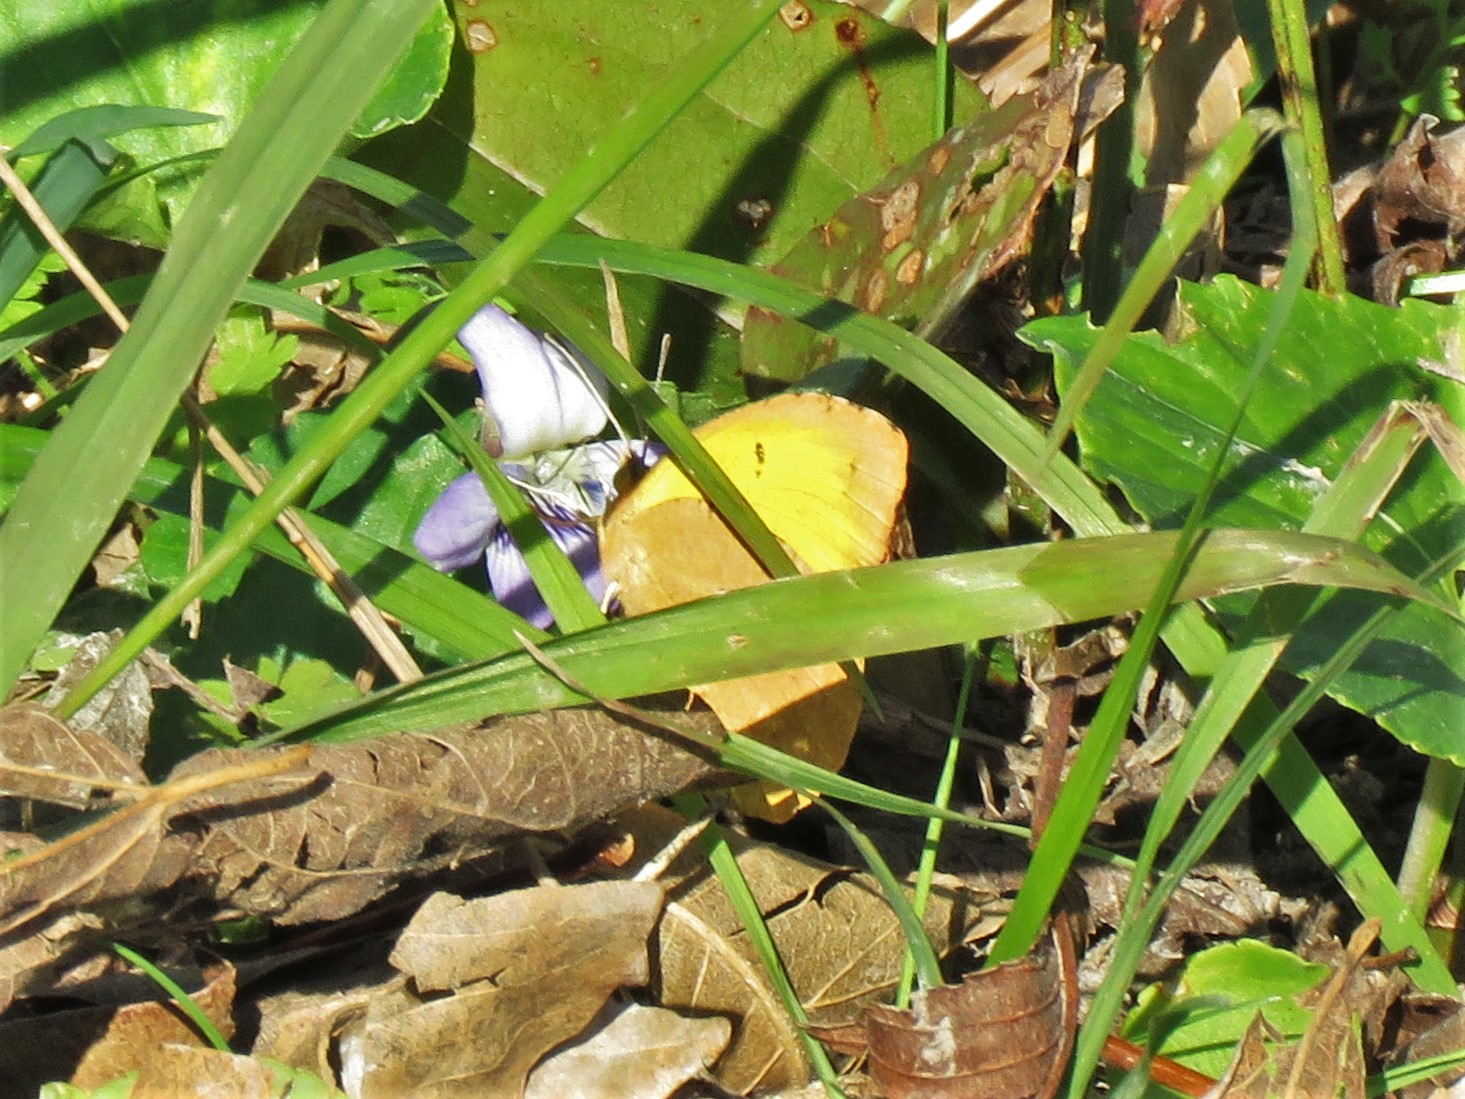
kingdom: Animalia
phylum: Arthropoda
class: Insecta
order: Lepidoptera
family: Pieridae
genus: Abaeis
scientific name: Abaeis nicippe
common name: Sleepy orange
